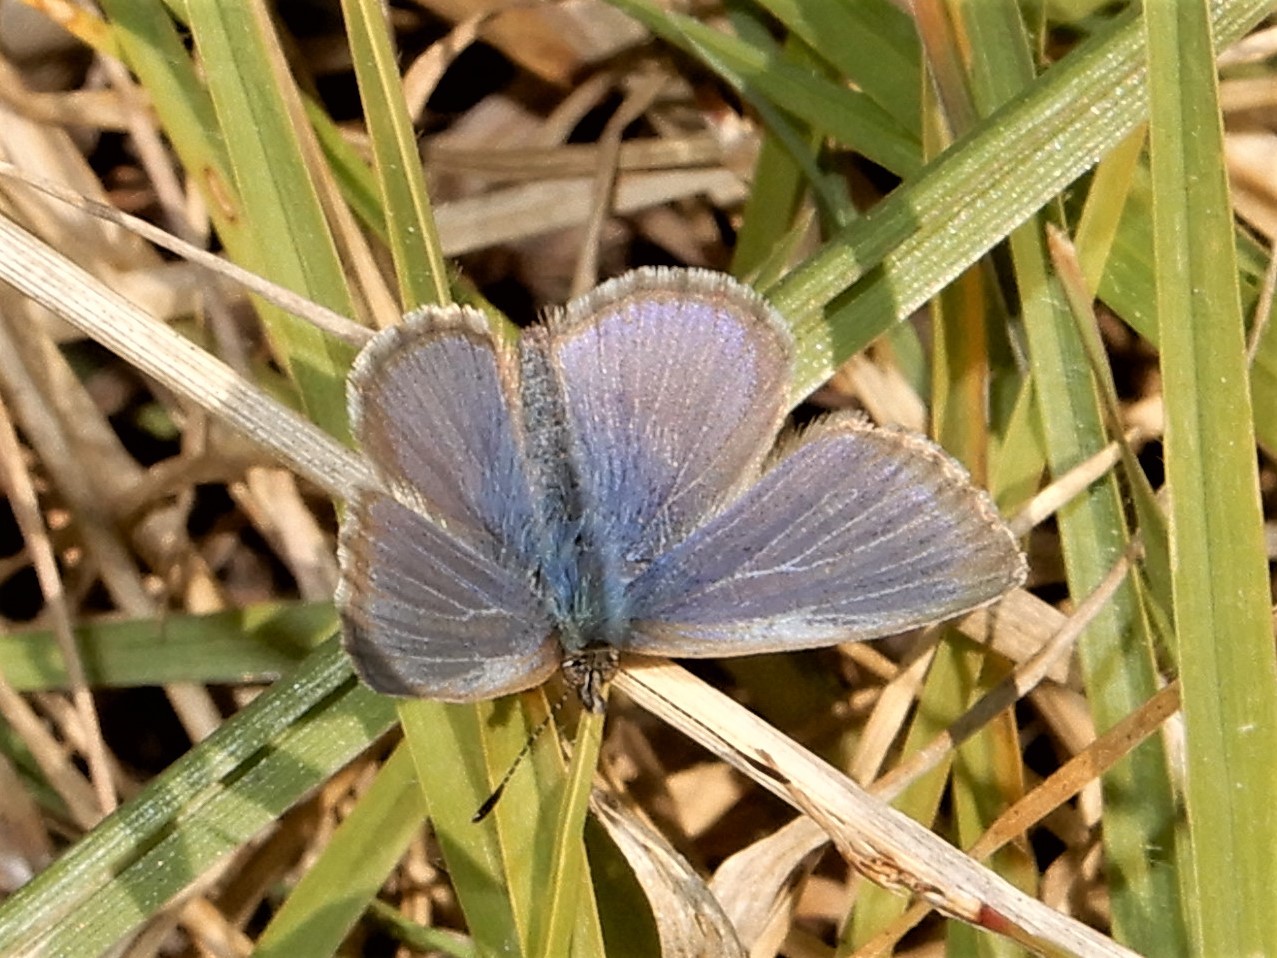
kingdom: Animalia
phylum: Arthropoda
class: Insecta
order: Lepidoptera
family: Lycaenidae
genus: Zizina
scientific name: Zizina labradus
